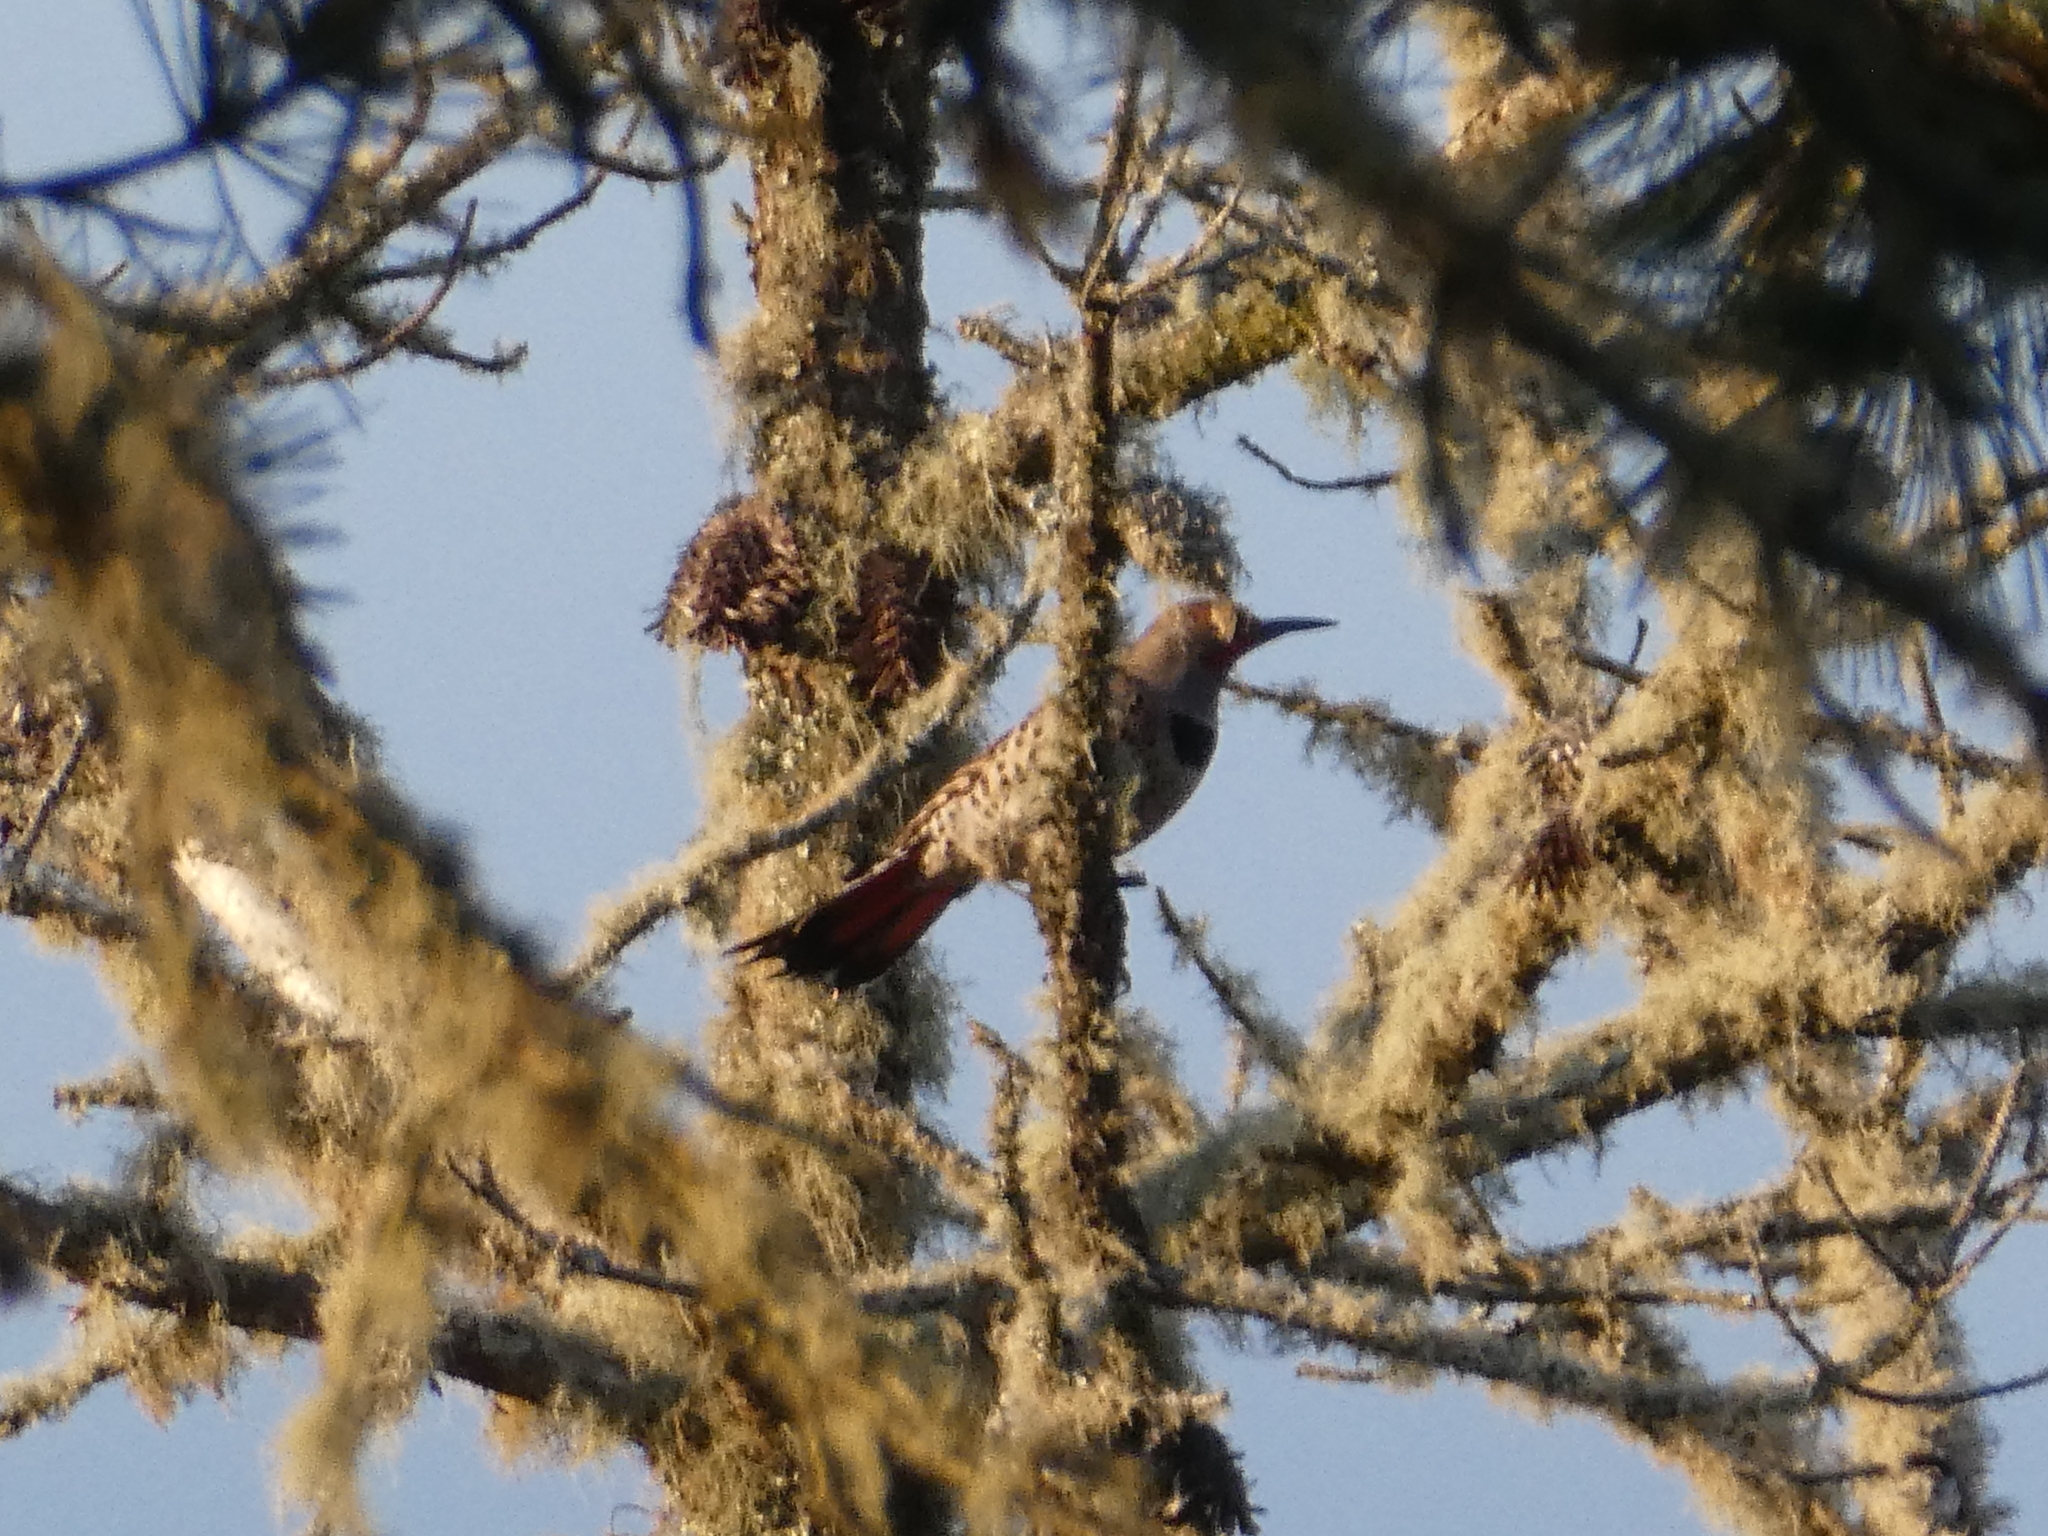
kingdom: Animalia
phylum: Chordata
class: Aves
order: Piciformes
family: Picidae
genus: Colaptes
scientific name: Colaptes auratus
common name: Northern flicker
